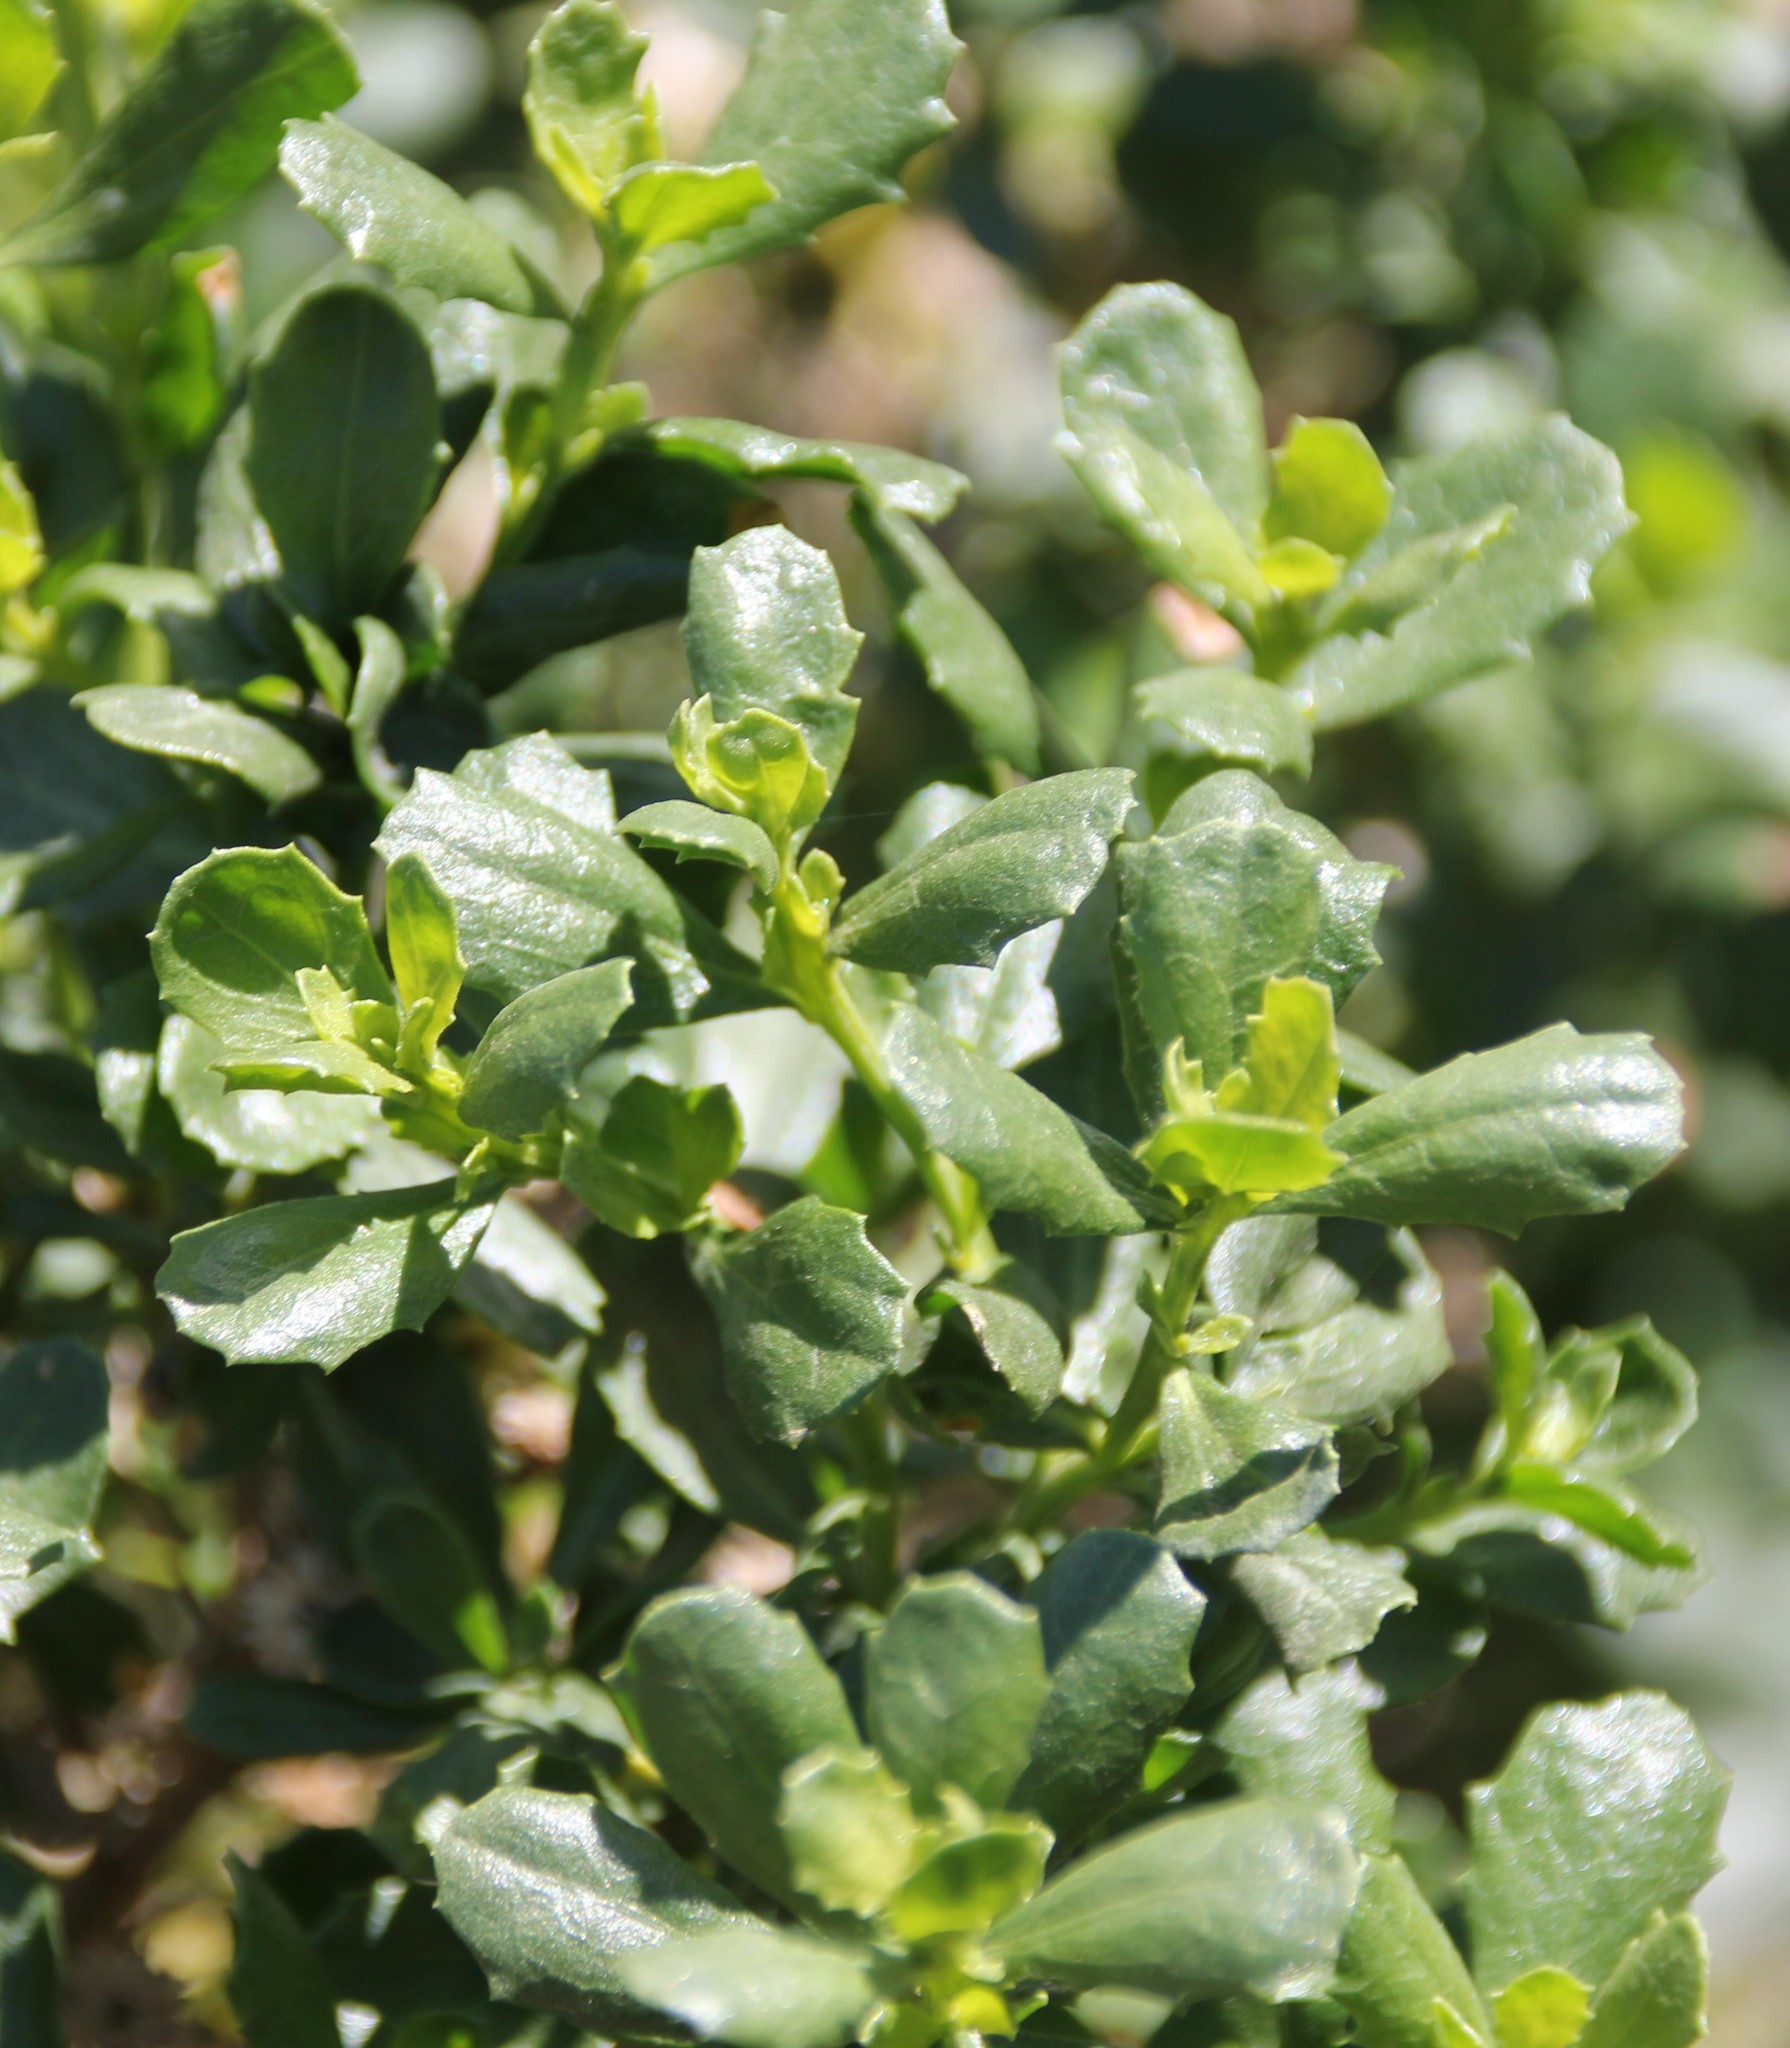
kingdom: Plantae
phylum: Tracheophyta
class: Magnoliopsida
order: Asterales
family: Asteraceae
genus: Baccharis
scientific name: Baccharis pilularis
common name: Coyotebrush
